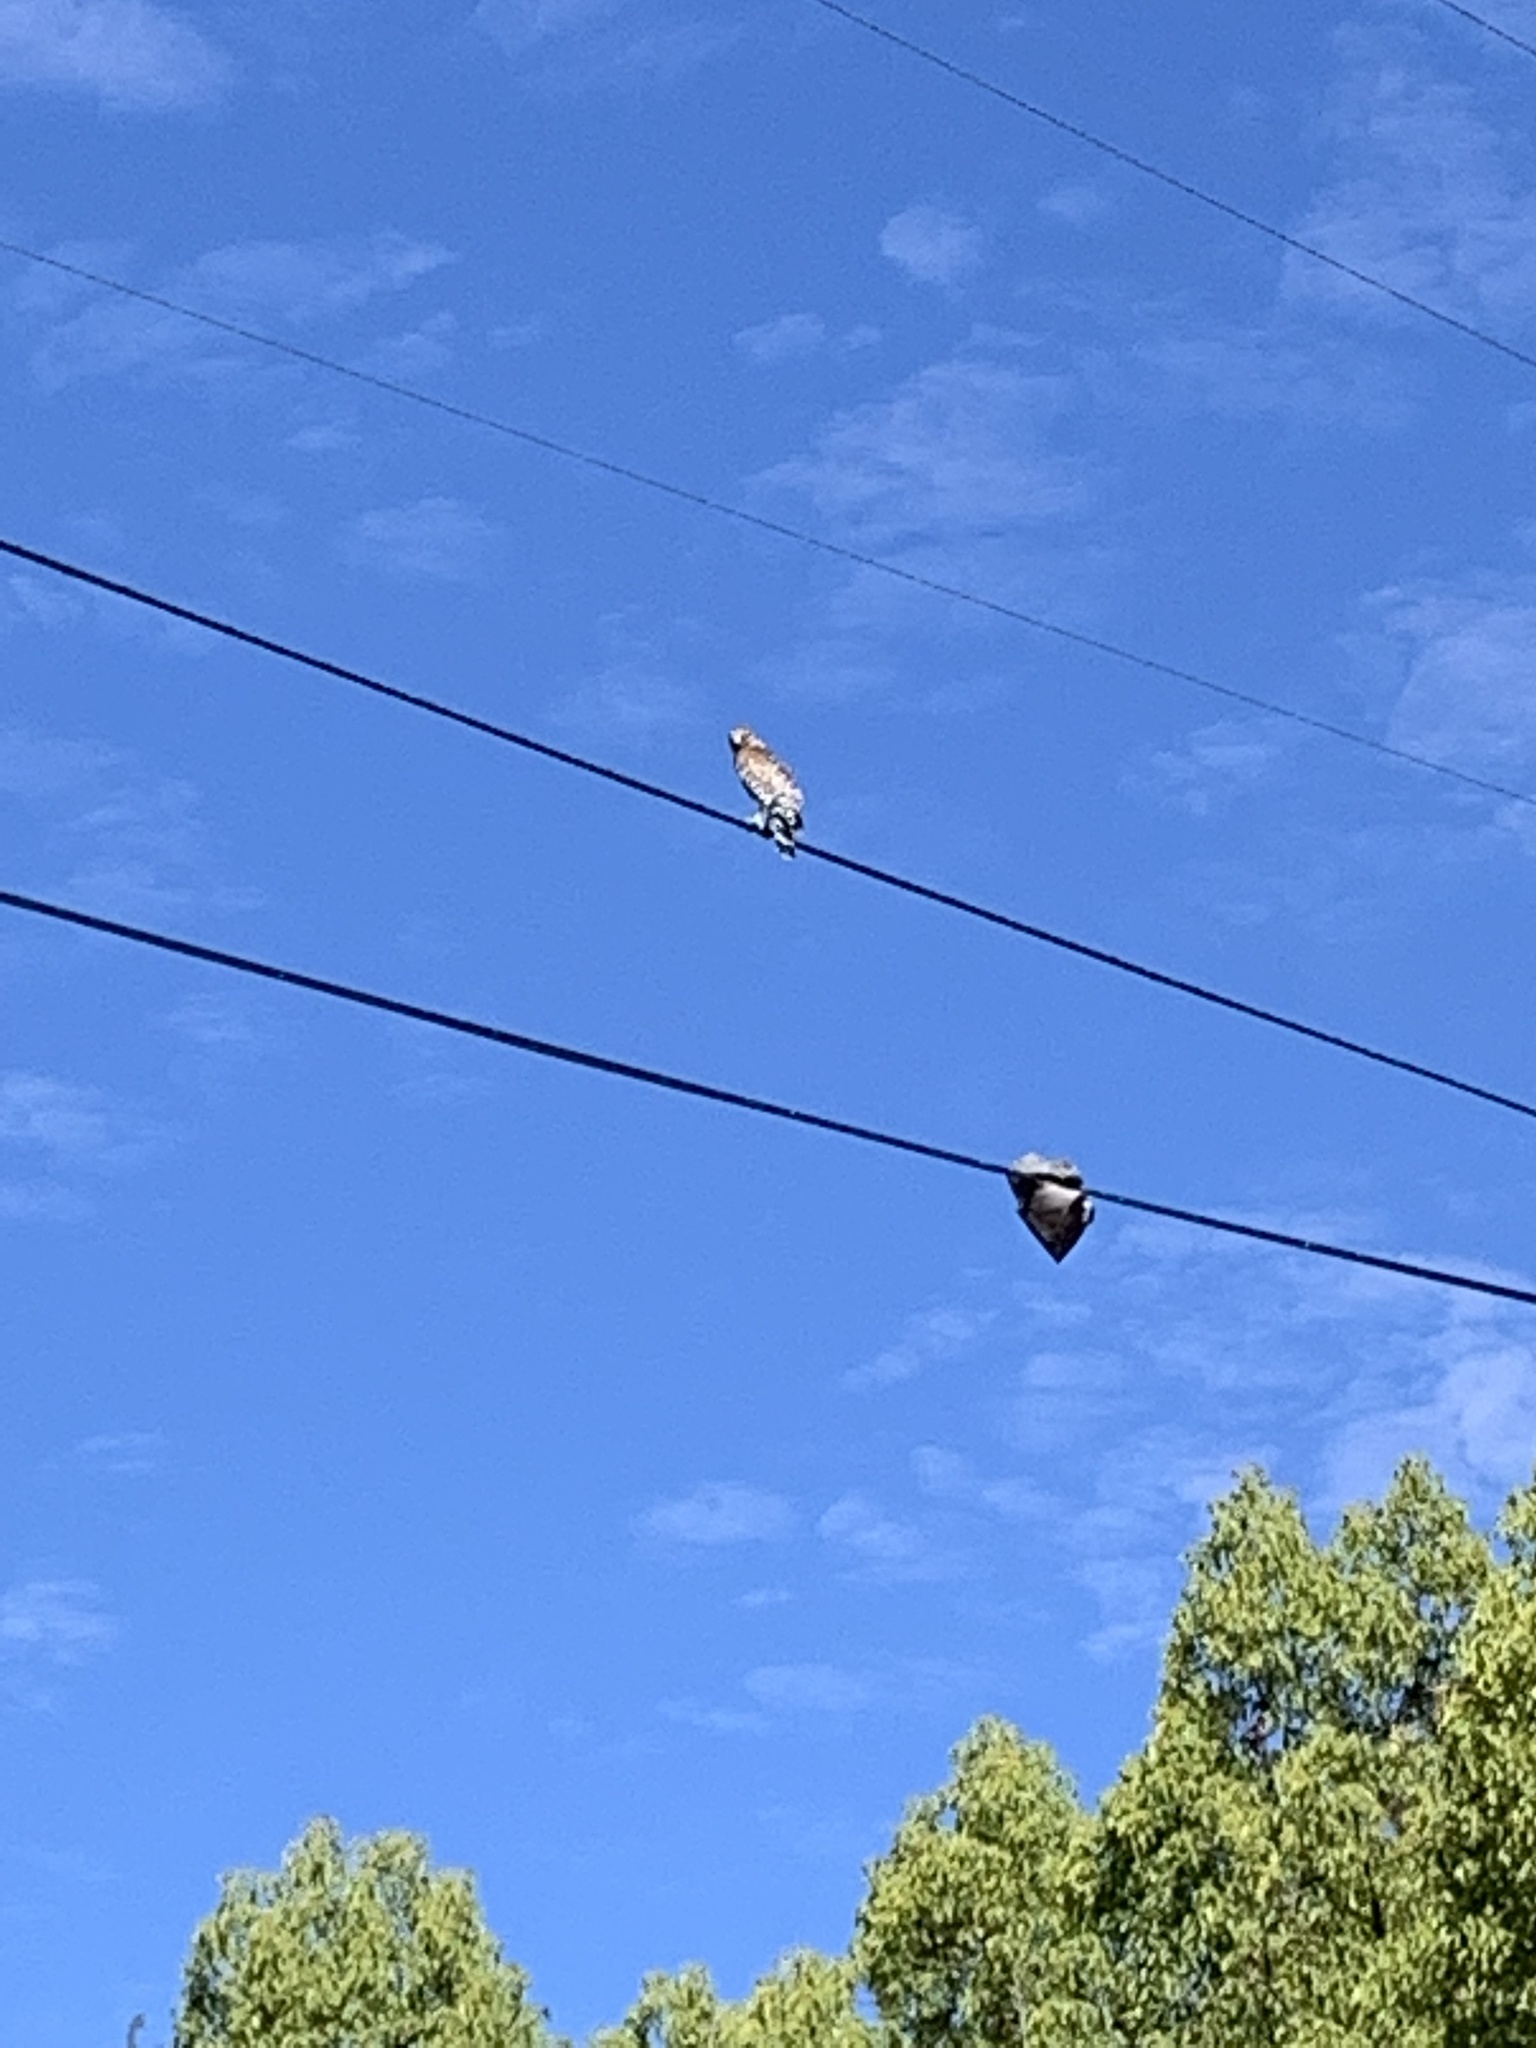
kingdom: Animalia
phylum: Chordata
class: Aves
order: Accipitriformes
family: Accipitridae
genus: Buteo
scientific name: Buteo lineatus
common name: Red-shouldered hawk
